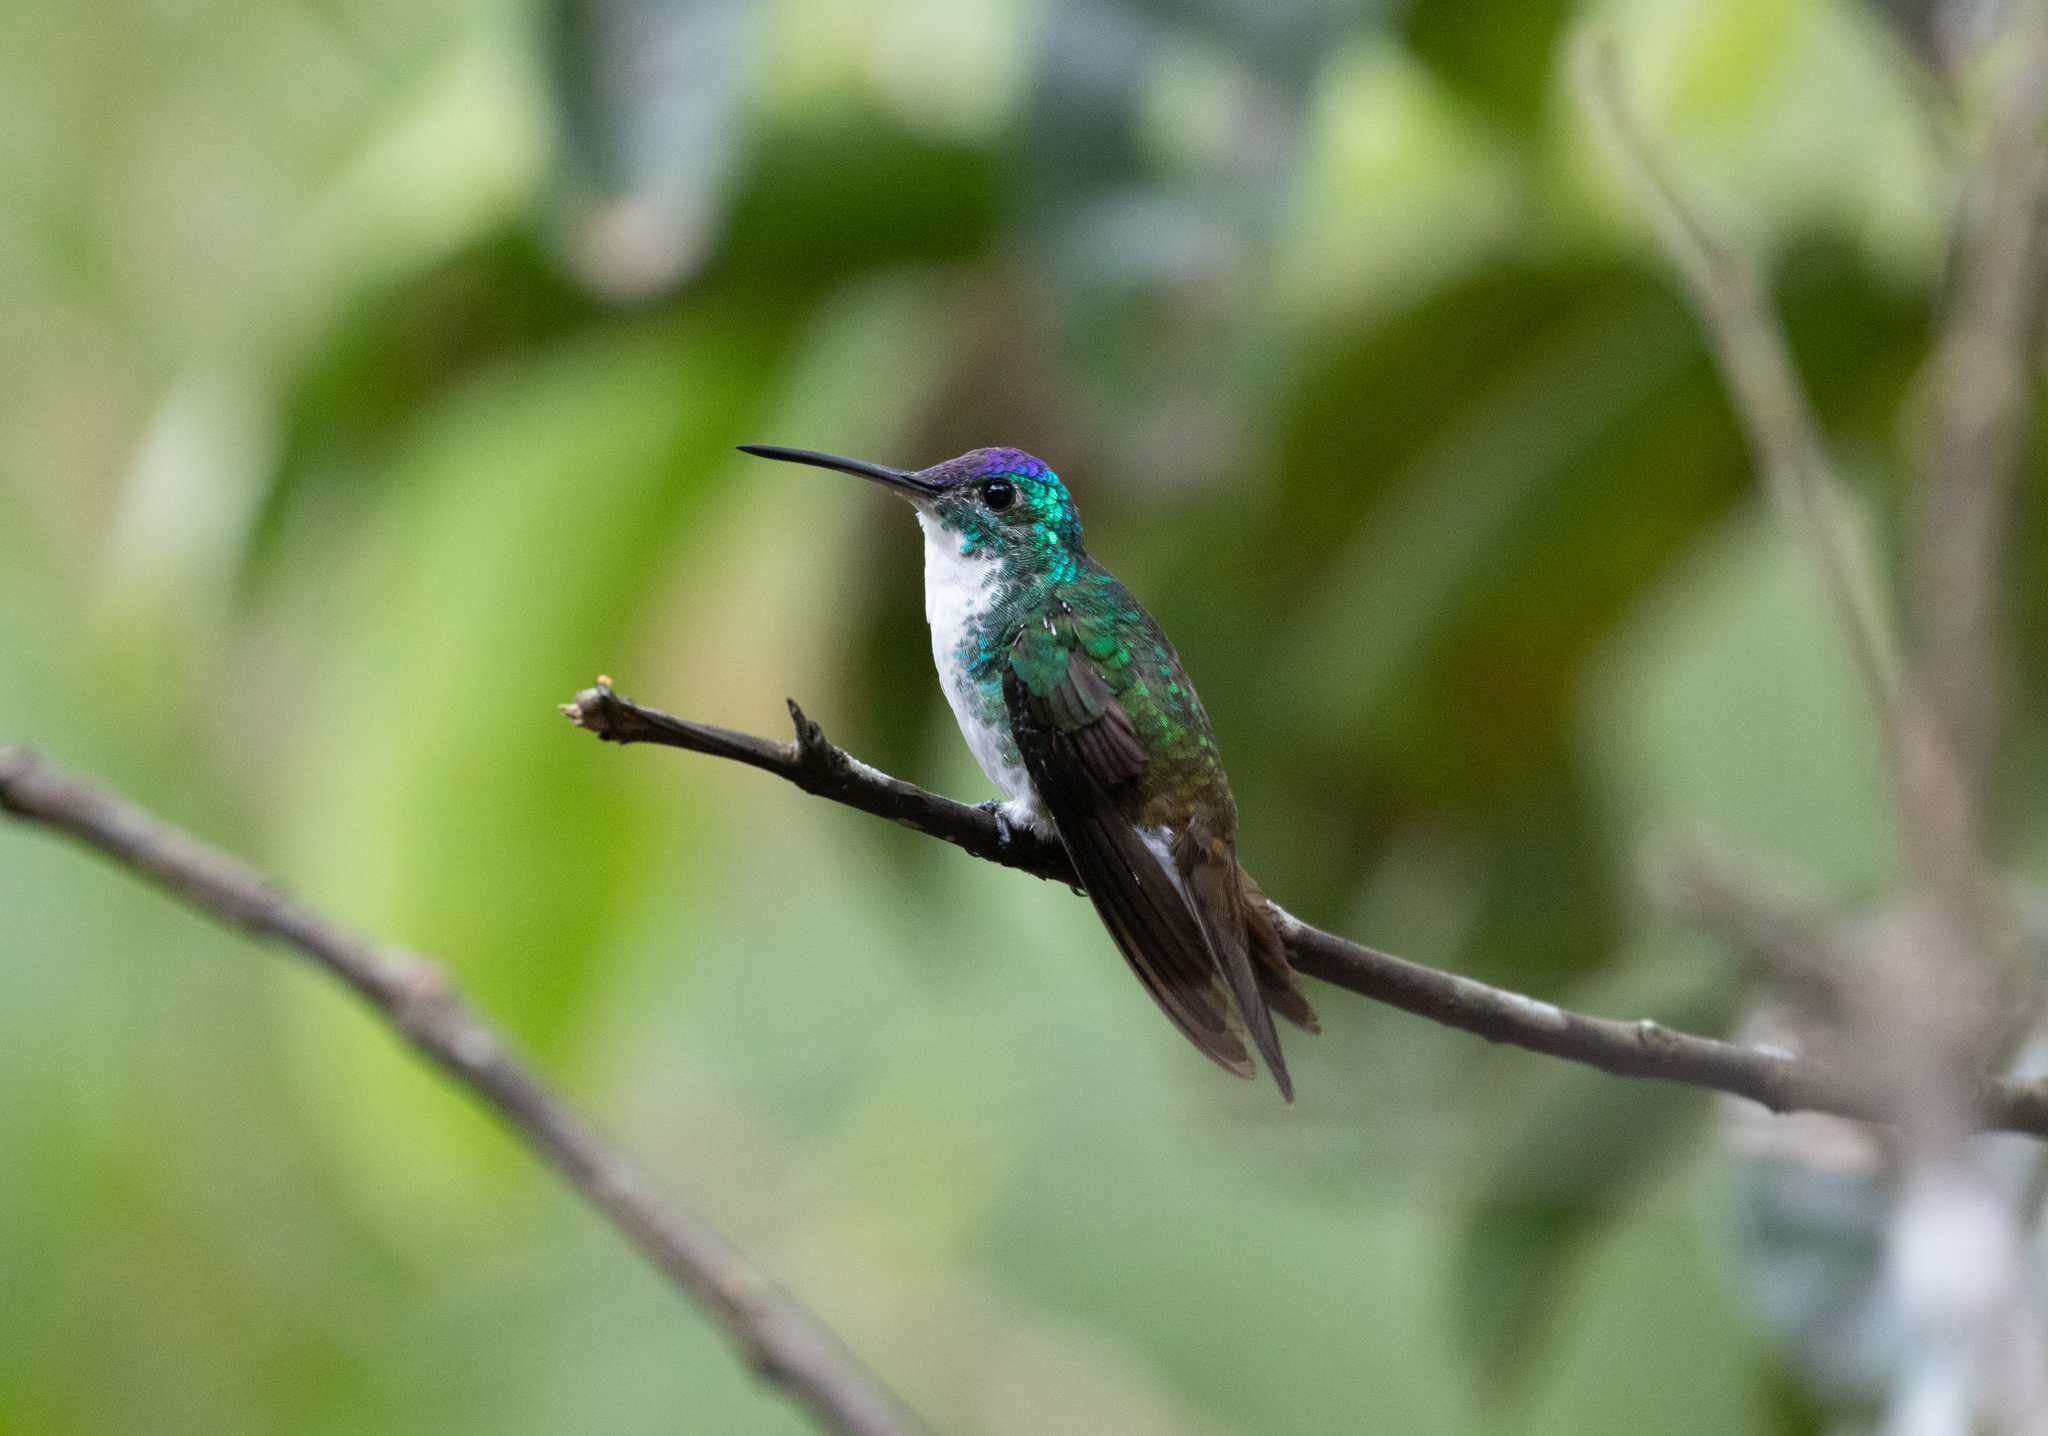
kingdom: Animalia
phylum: Chordata
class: Aves
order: Apodiformes
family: Trochilidae
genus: Uranomitra
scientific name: Uranomitra franciae
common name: Andean emerald
